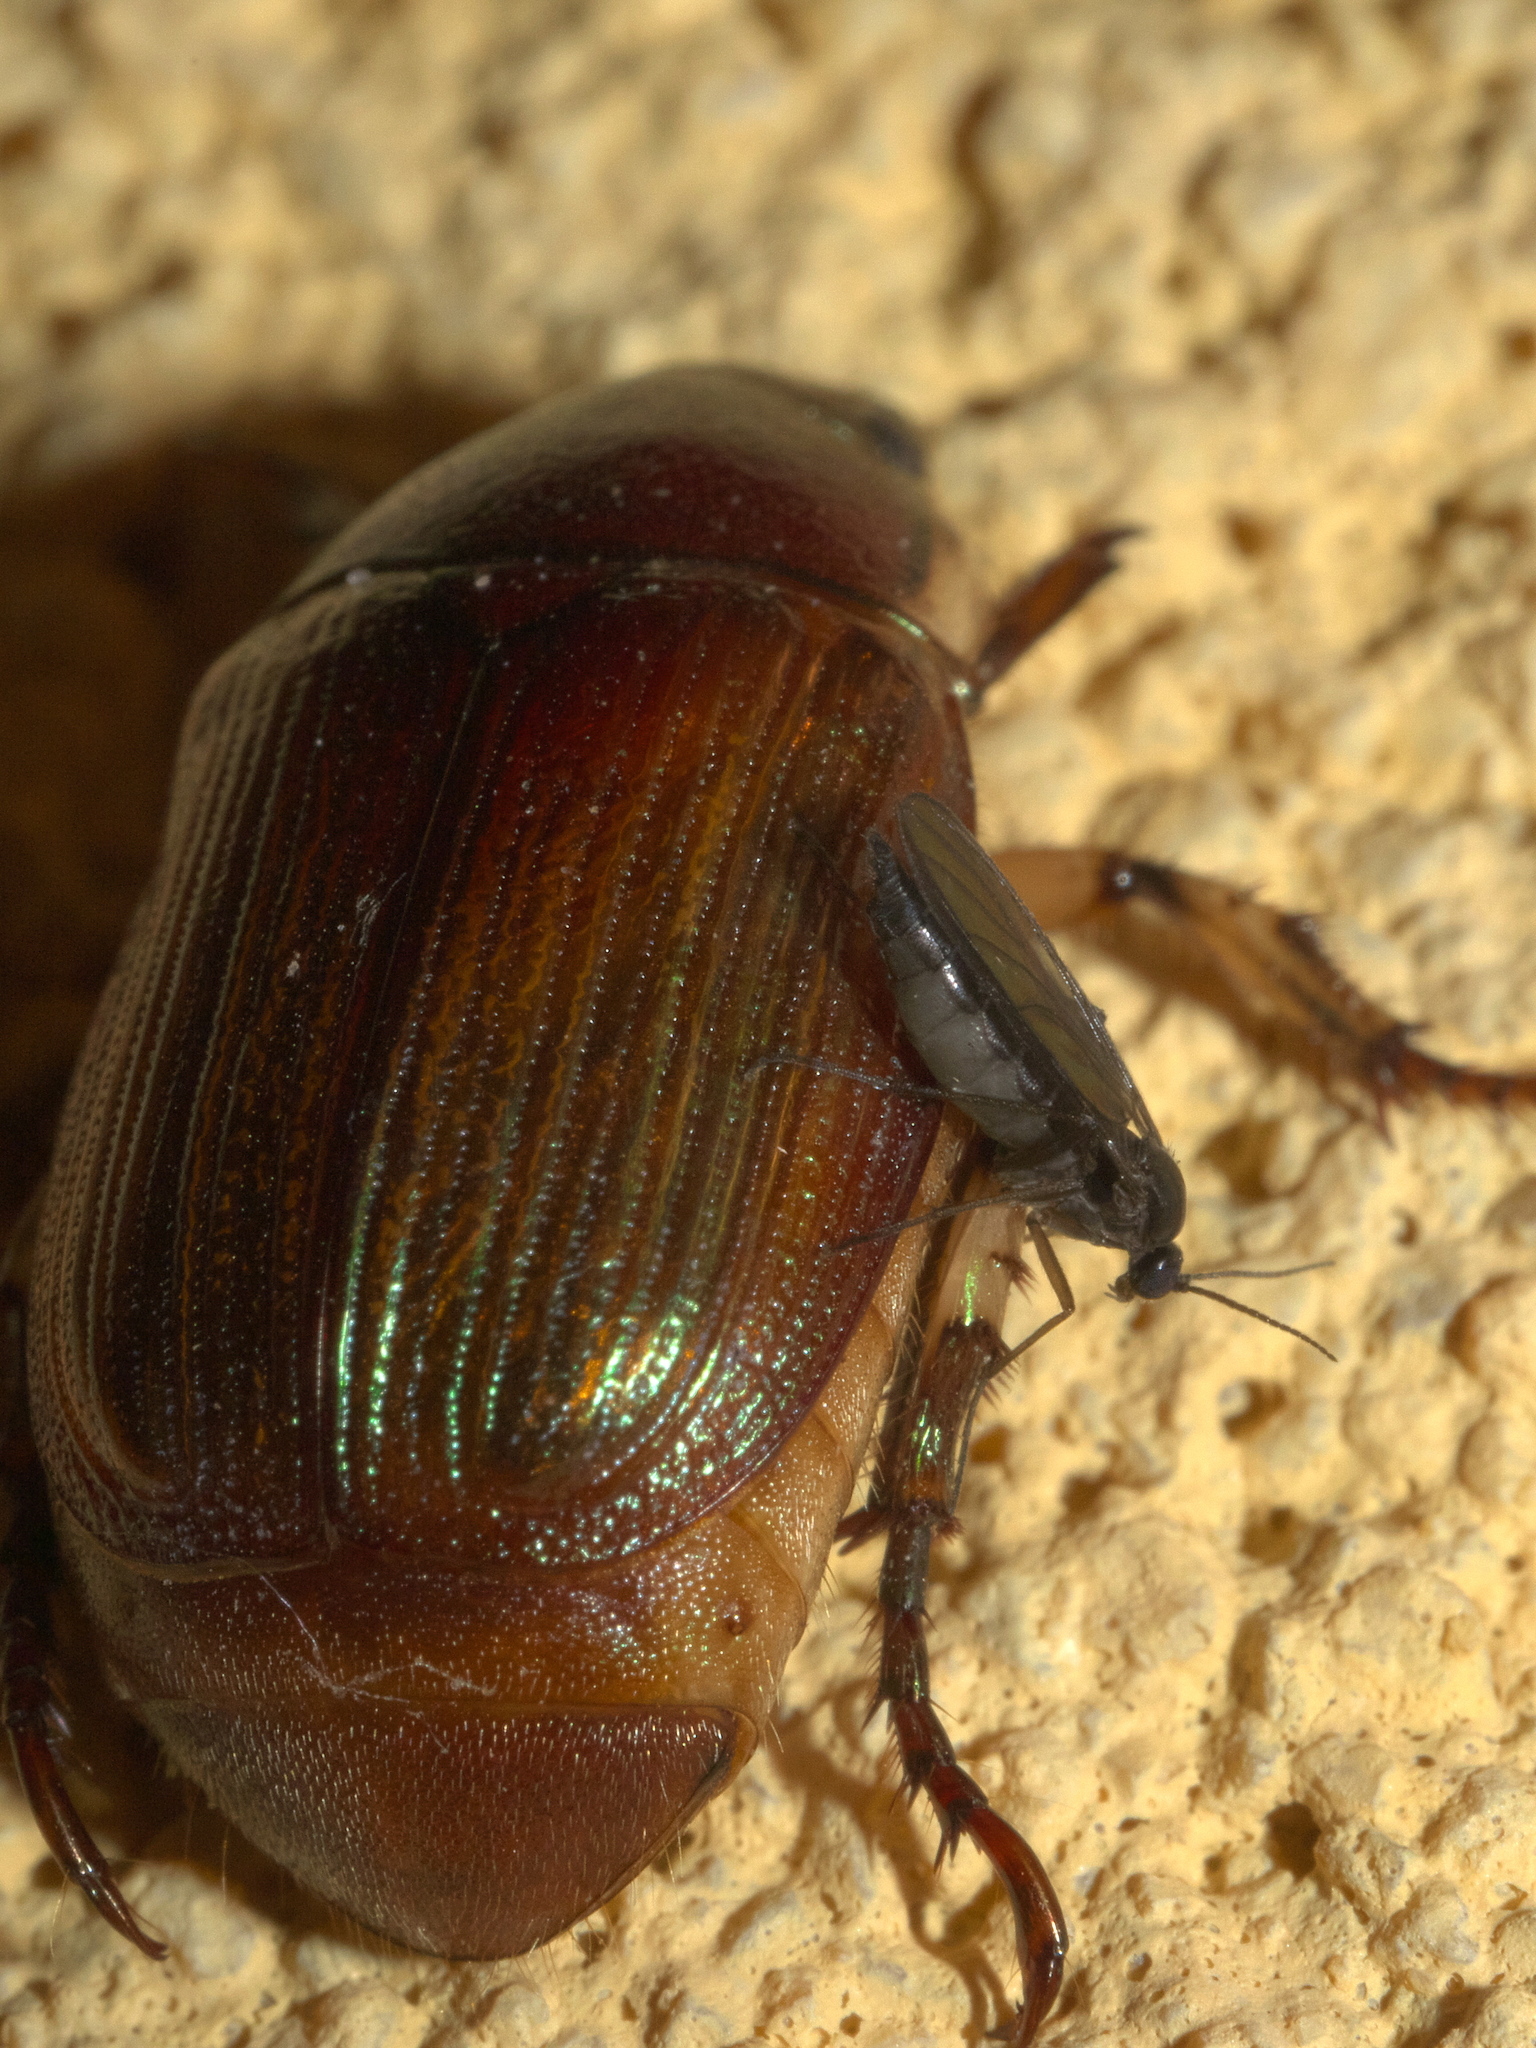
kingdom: Animalia
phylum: Arthropoda
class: Insecta
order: Coleoptera
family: Scarabaeidae
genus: Callistethus
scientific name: Callistethus marginatus
